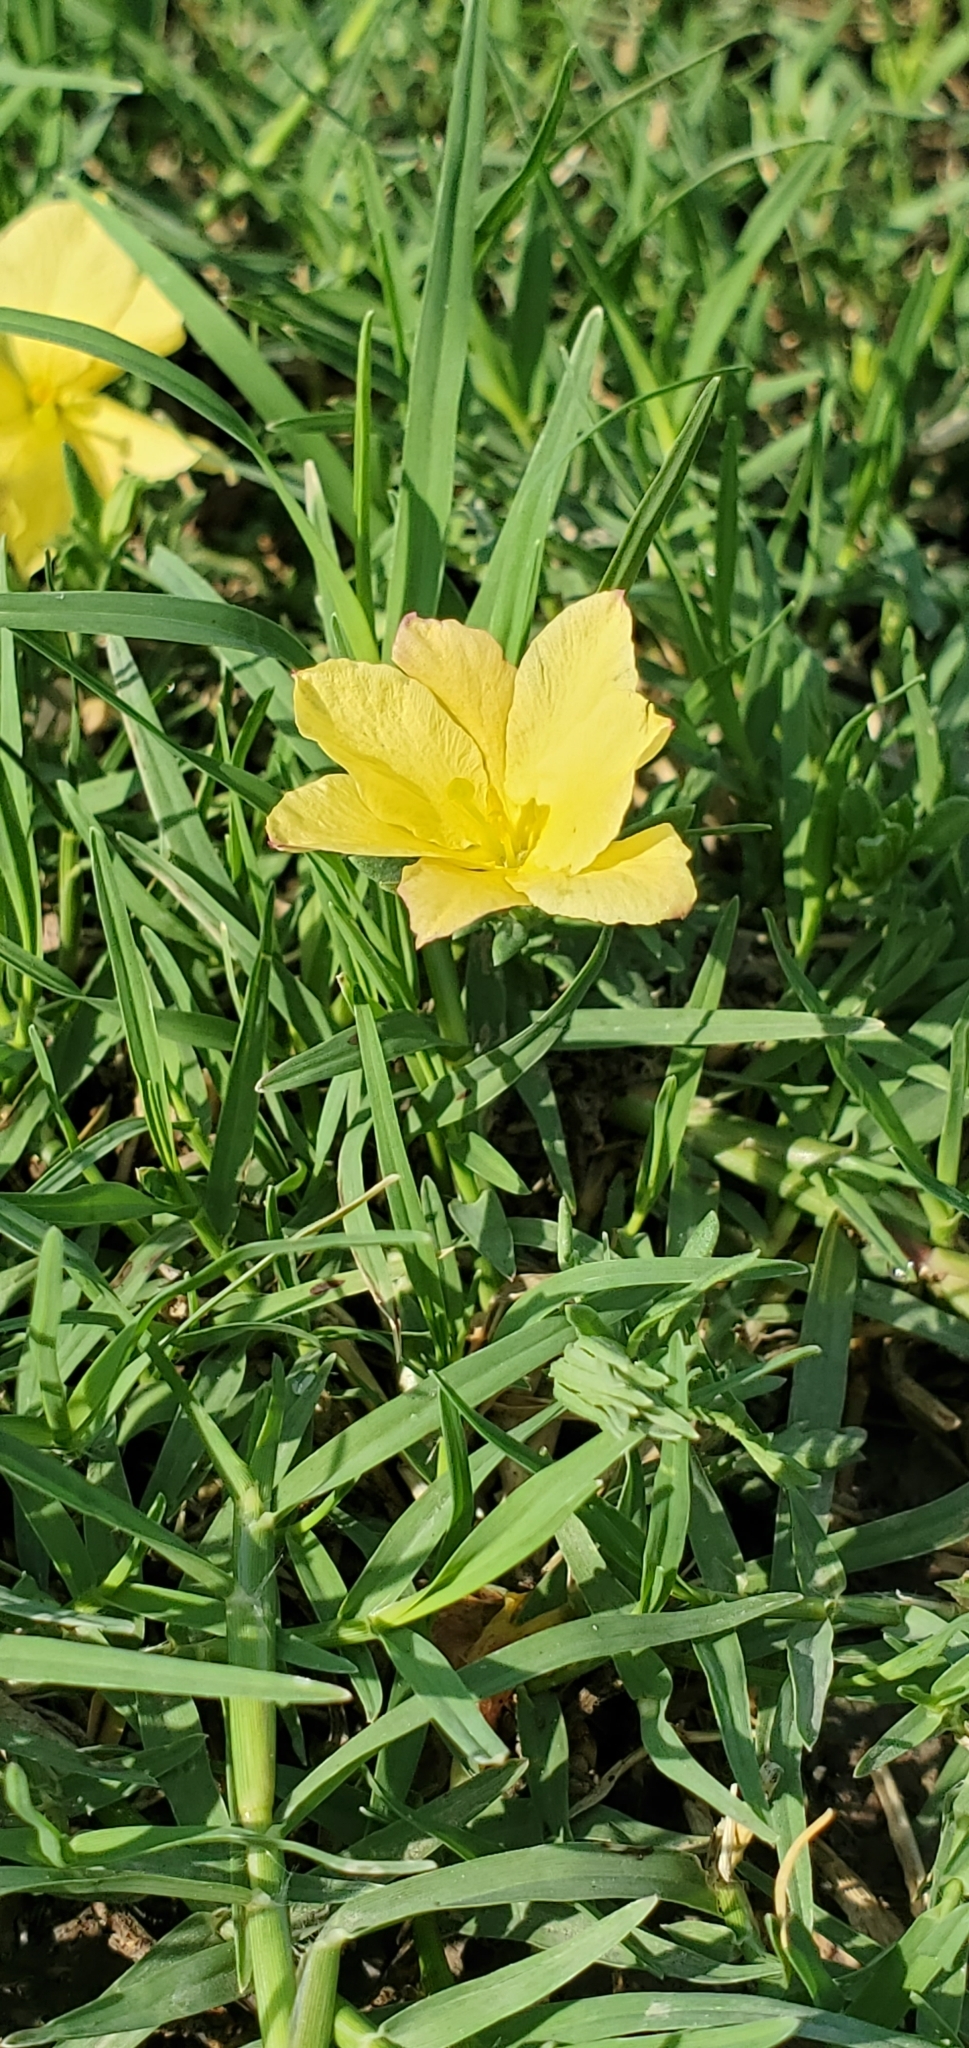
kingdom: Plantae
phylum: Tracheophyta
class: Magnoliopsida
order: Lamiales
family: Oleaceae
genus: Menodora
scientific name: Menodora heterophylla
